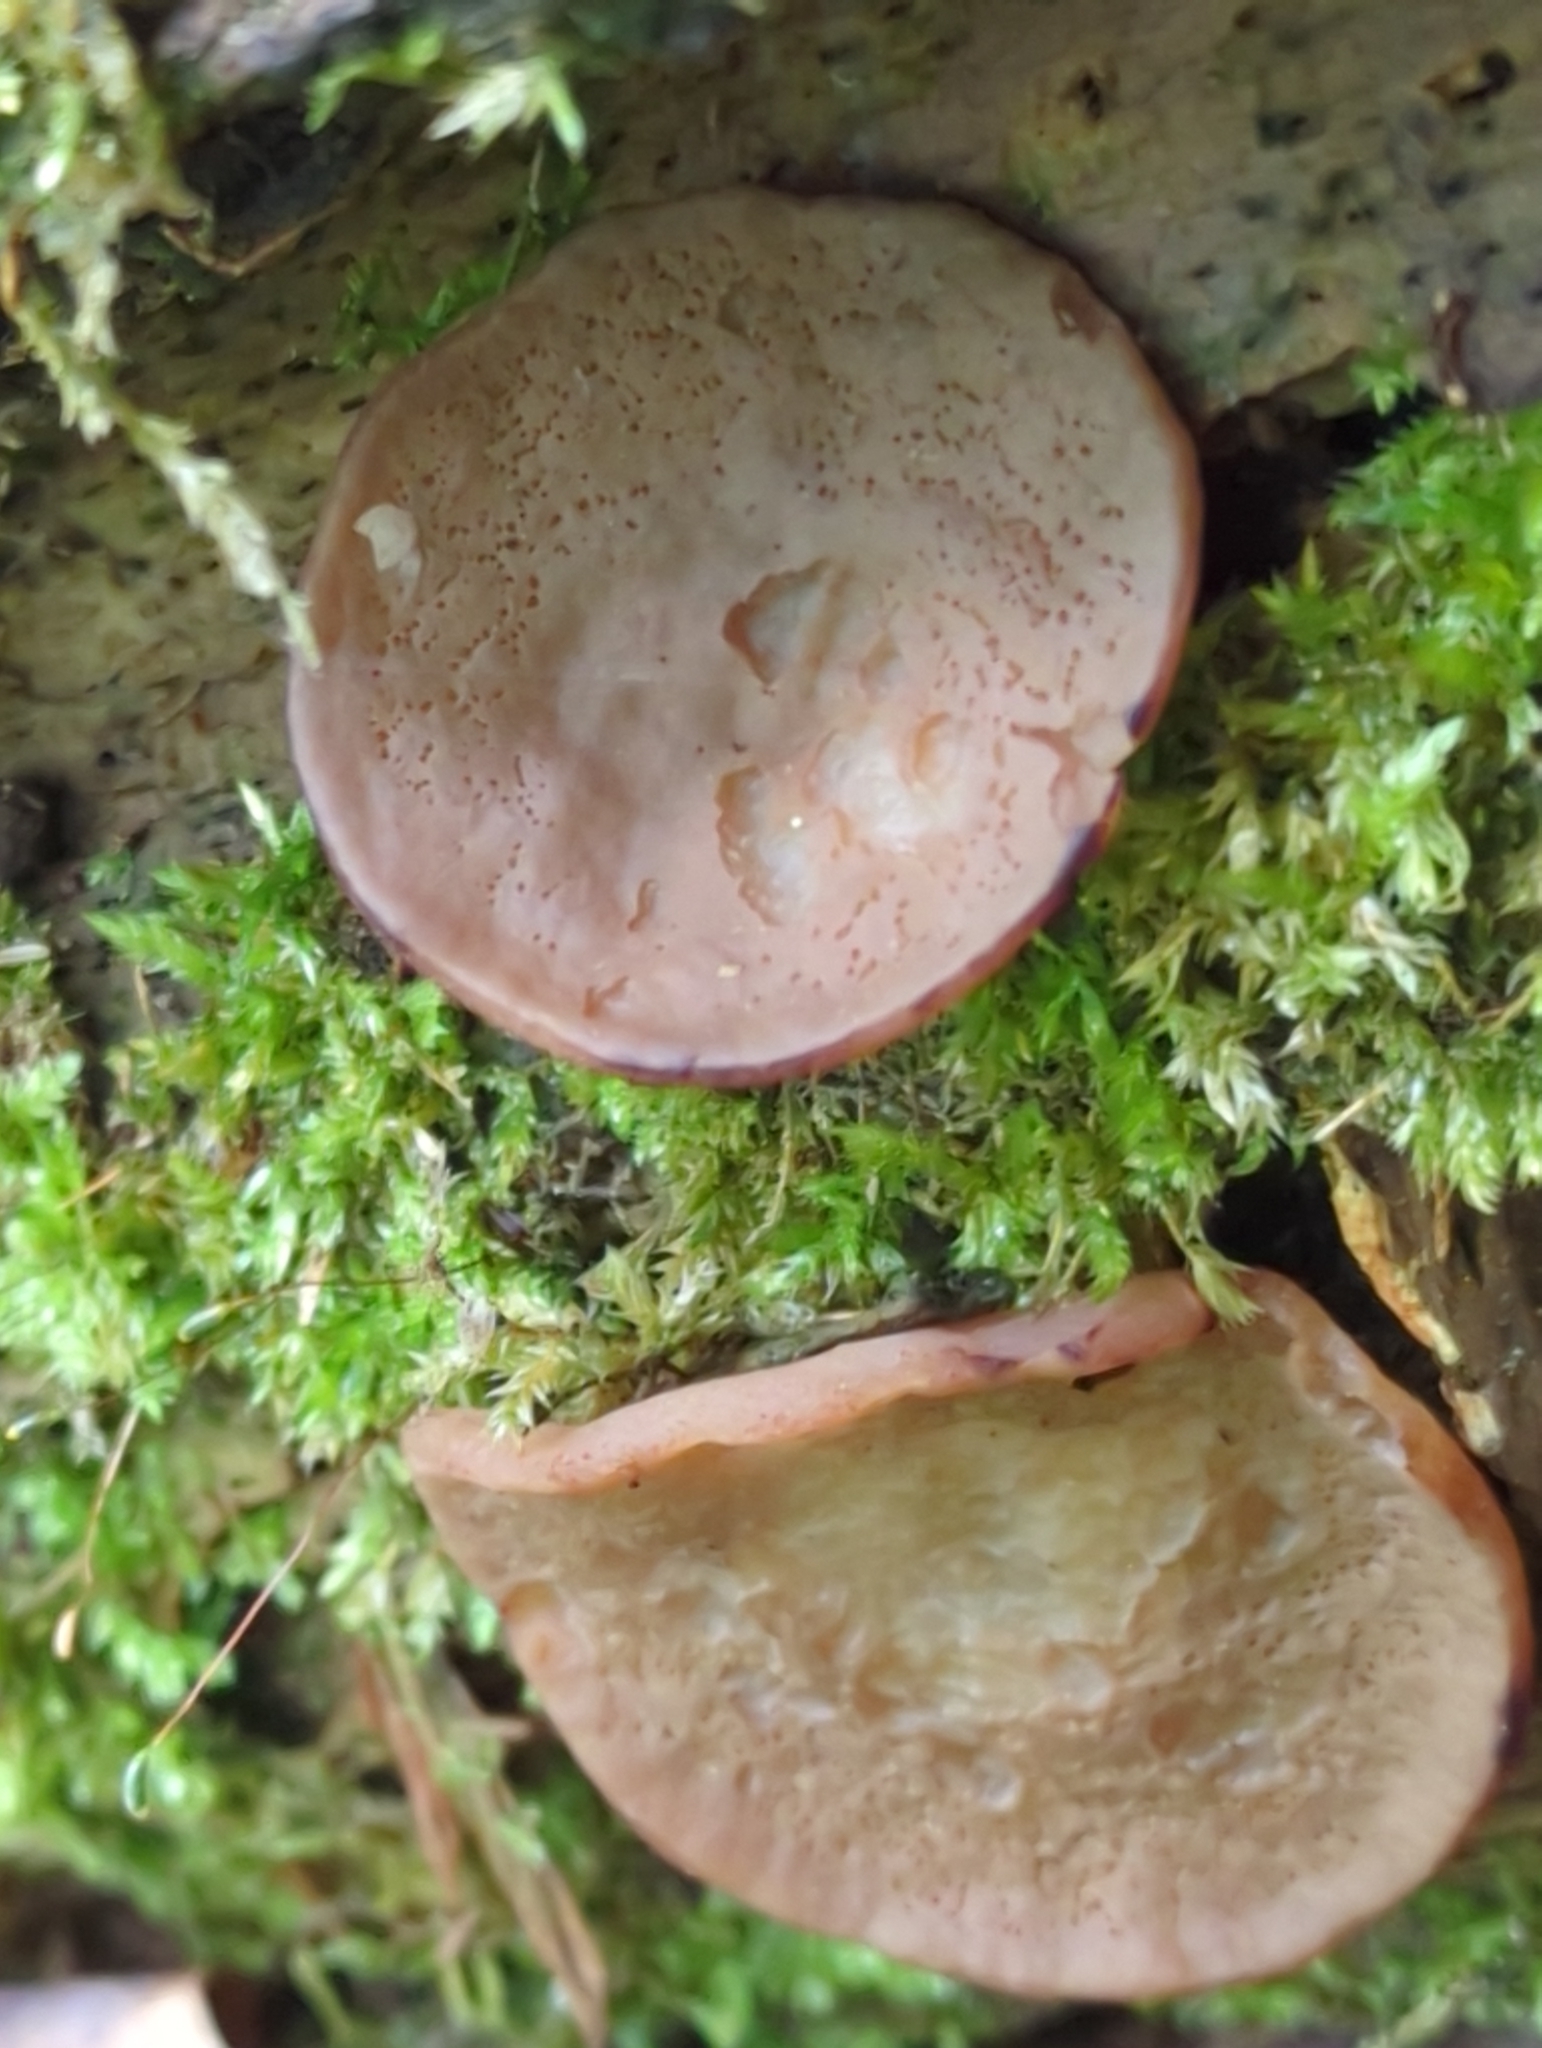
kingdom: Fungi
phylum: Ascomycota
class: Pezizomycetes
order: Pezizales
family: Discinaceae
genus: Discina
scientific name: Discina ancilis
